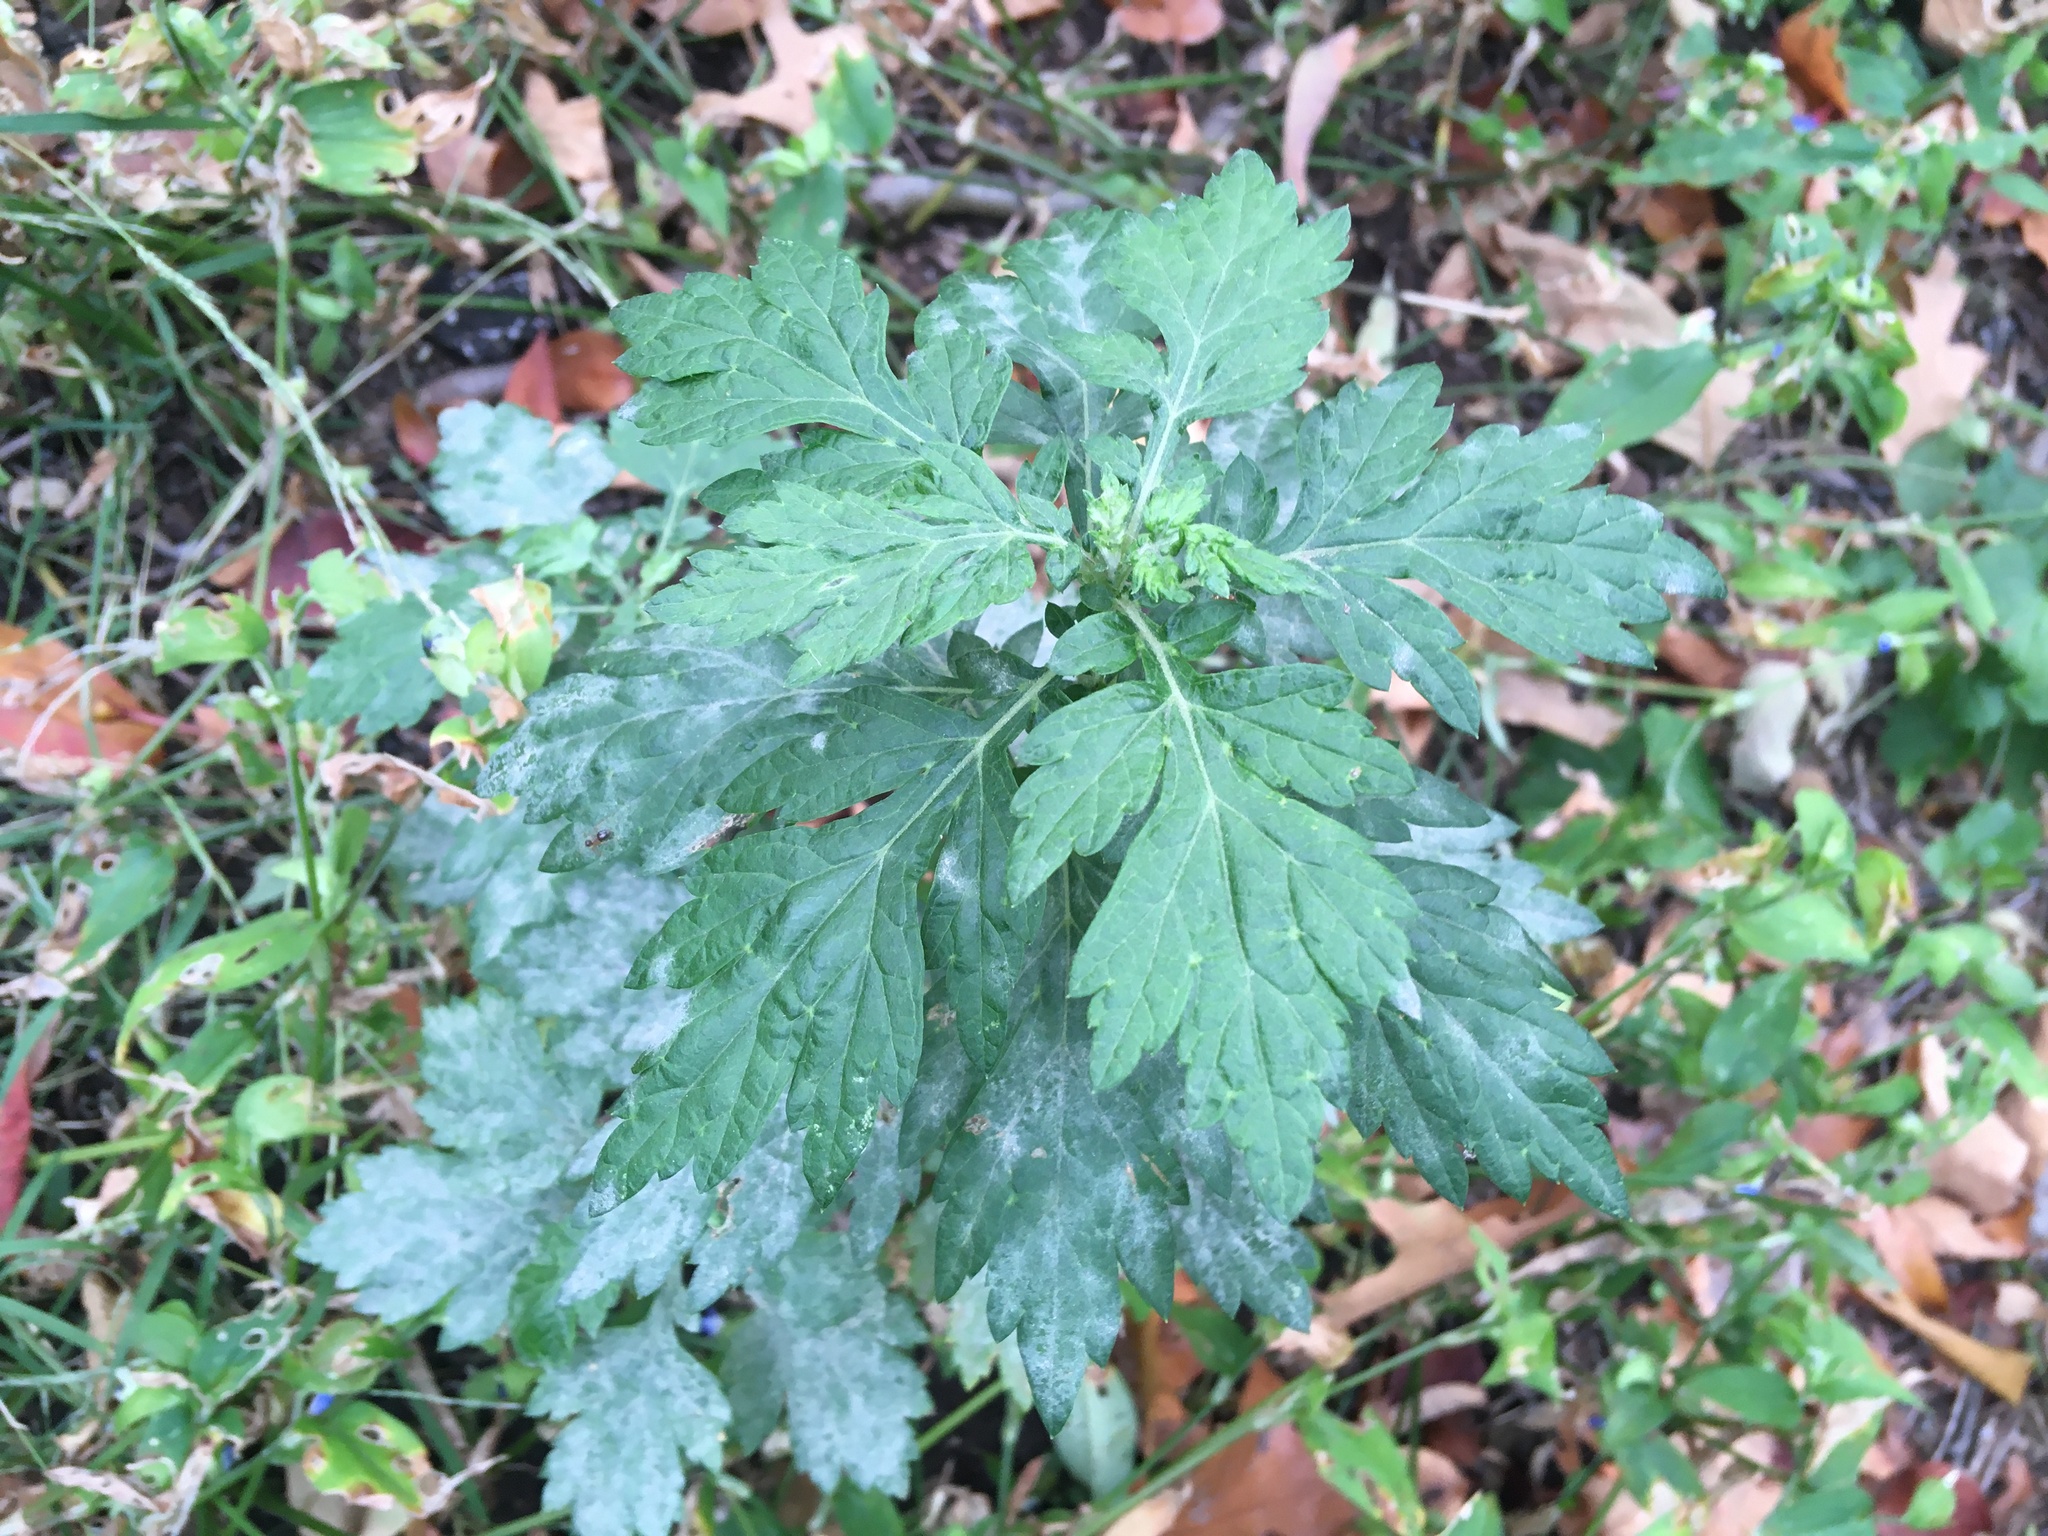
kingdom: Plantae
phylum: Tracheophyta
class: Magnoliopsida
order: Asterales
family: Asteraceae
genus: Artemisia
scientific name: Artemisia vulgaris
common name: Mugwort
